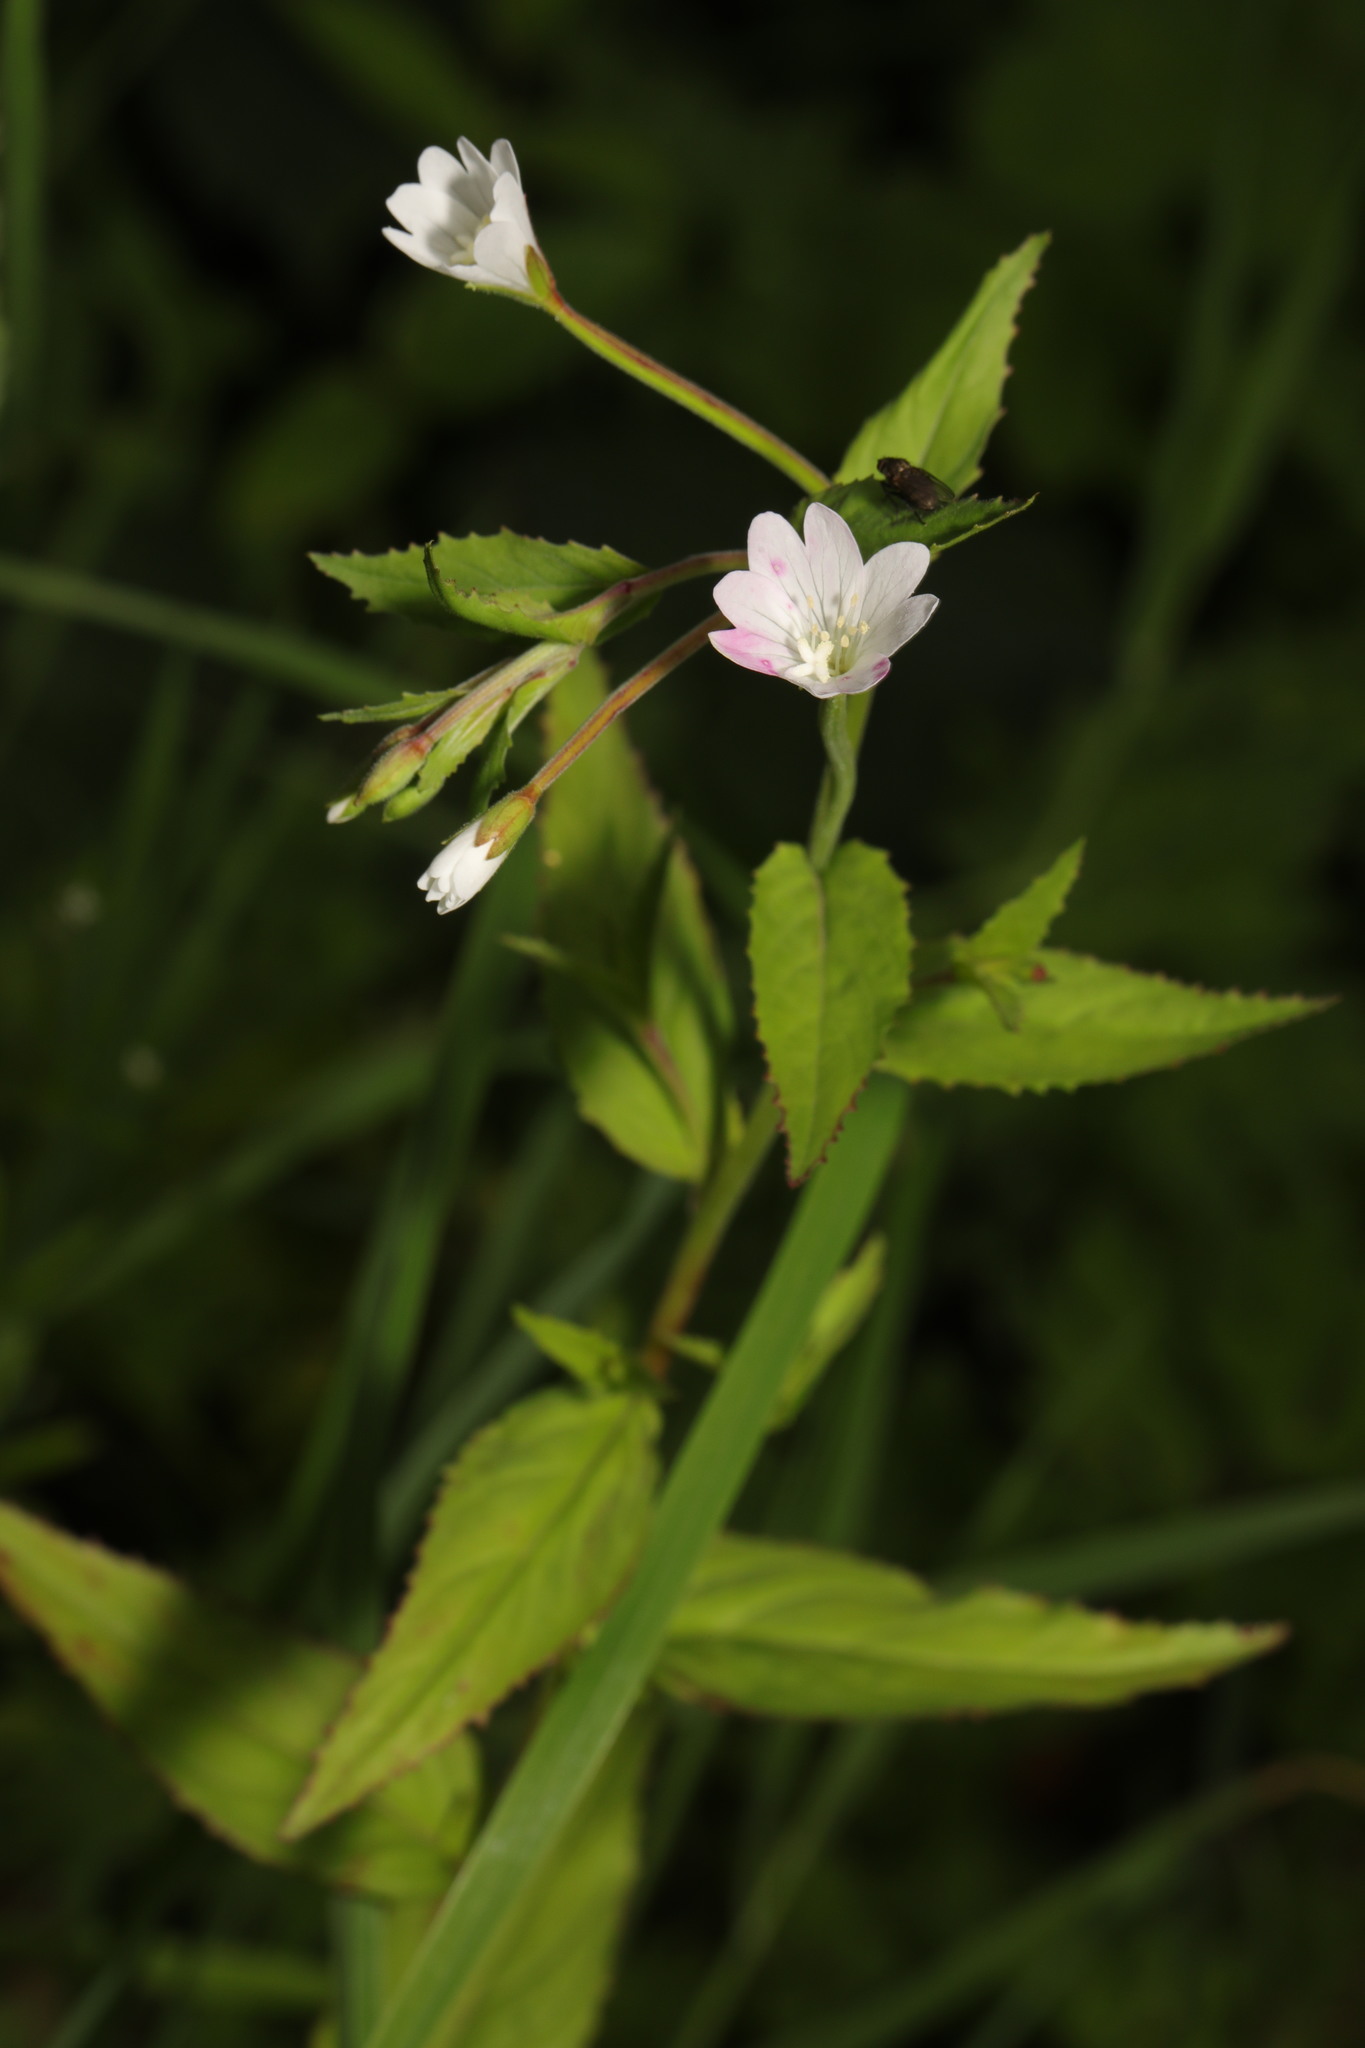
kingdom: Plantae
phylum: Tracheophyta
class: Magnoliopsida
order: Myrtales
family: Onagraceae
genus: Epilobium
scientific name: Epilobium montanum
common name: Broad-leaved willowherb
